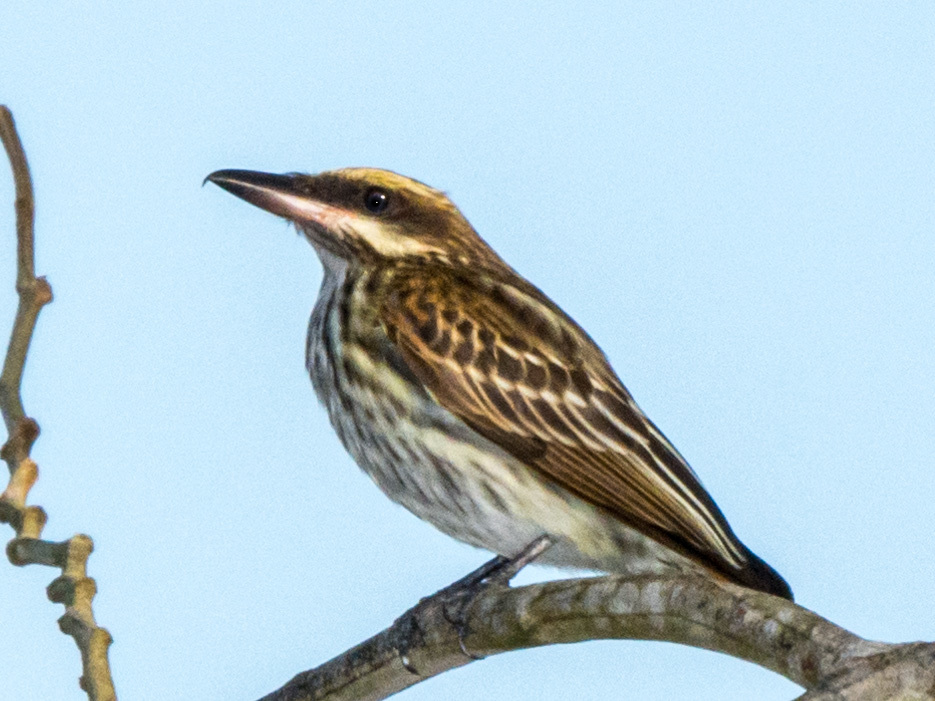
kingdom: Animalia
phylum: Chordata
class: Aves
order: Passeriformes
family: Tyrannidae
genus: Myiodynastes
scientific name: Myiodynastes maculatus
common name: Streaked flycatcher
